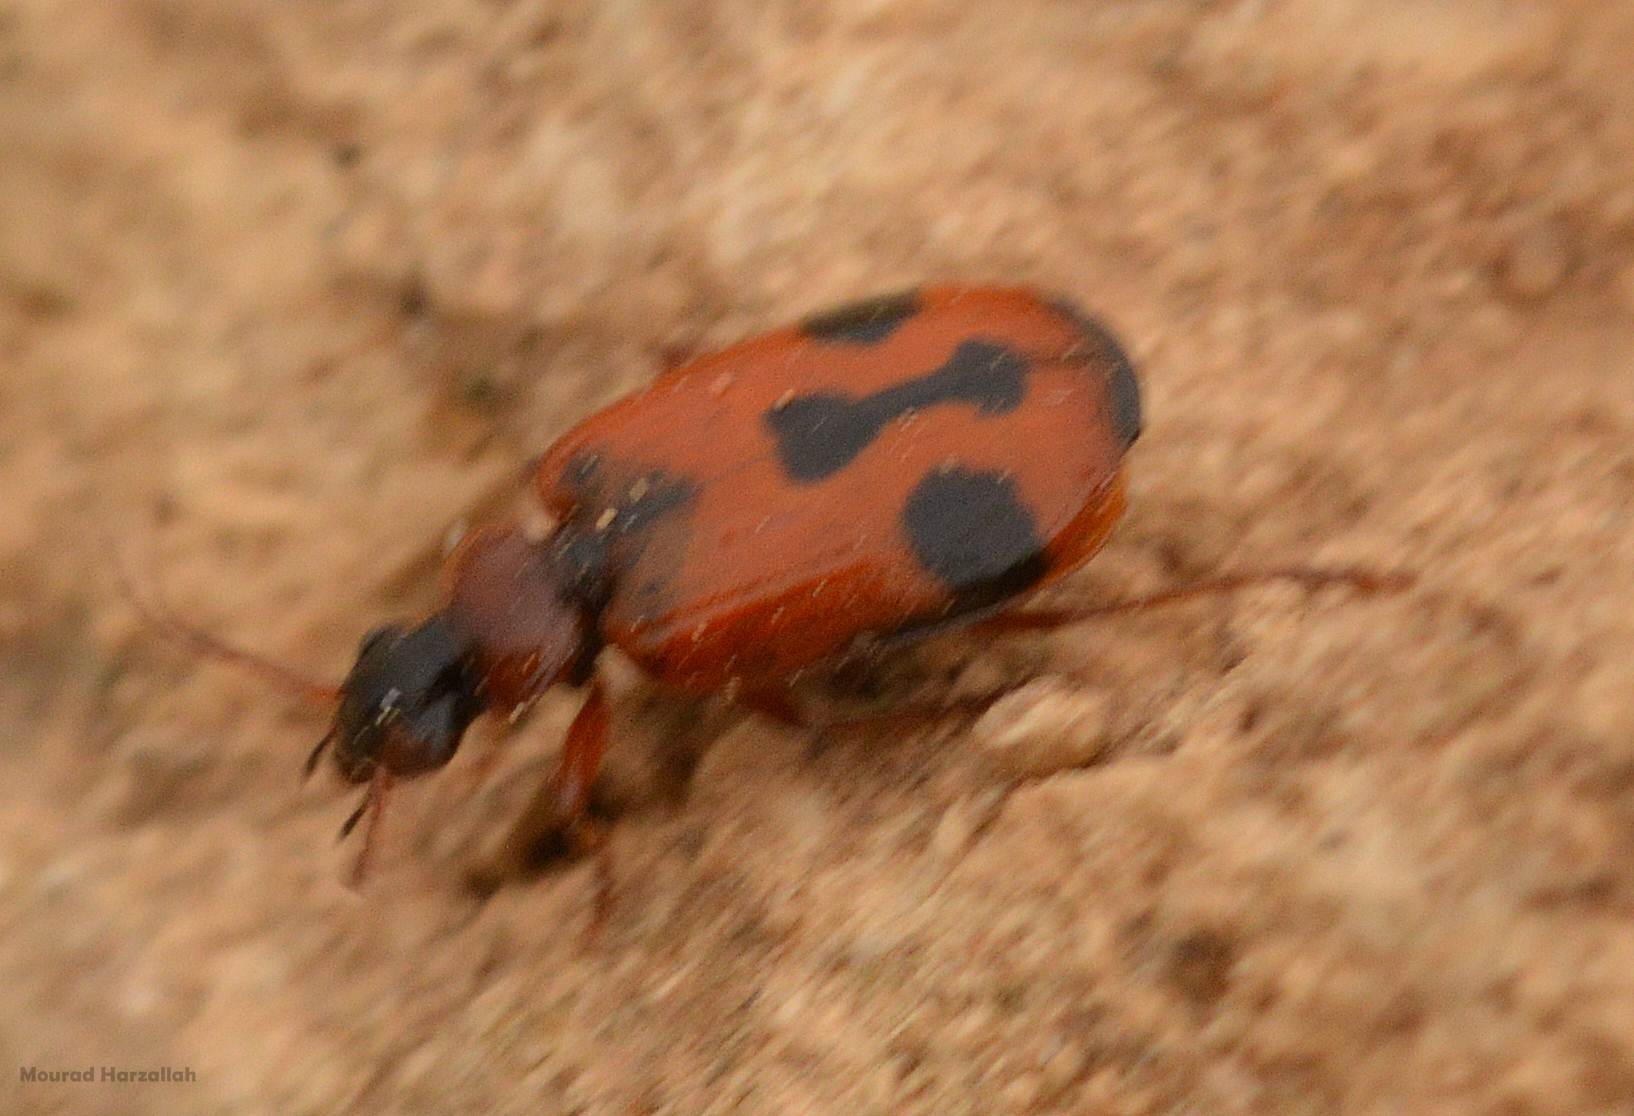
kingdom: Animalia
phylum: Arthropoda
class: Insecta
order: Coleoptera
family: Carabidae
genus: Lebia
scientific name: Lebia trimaculata
